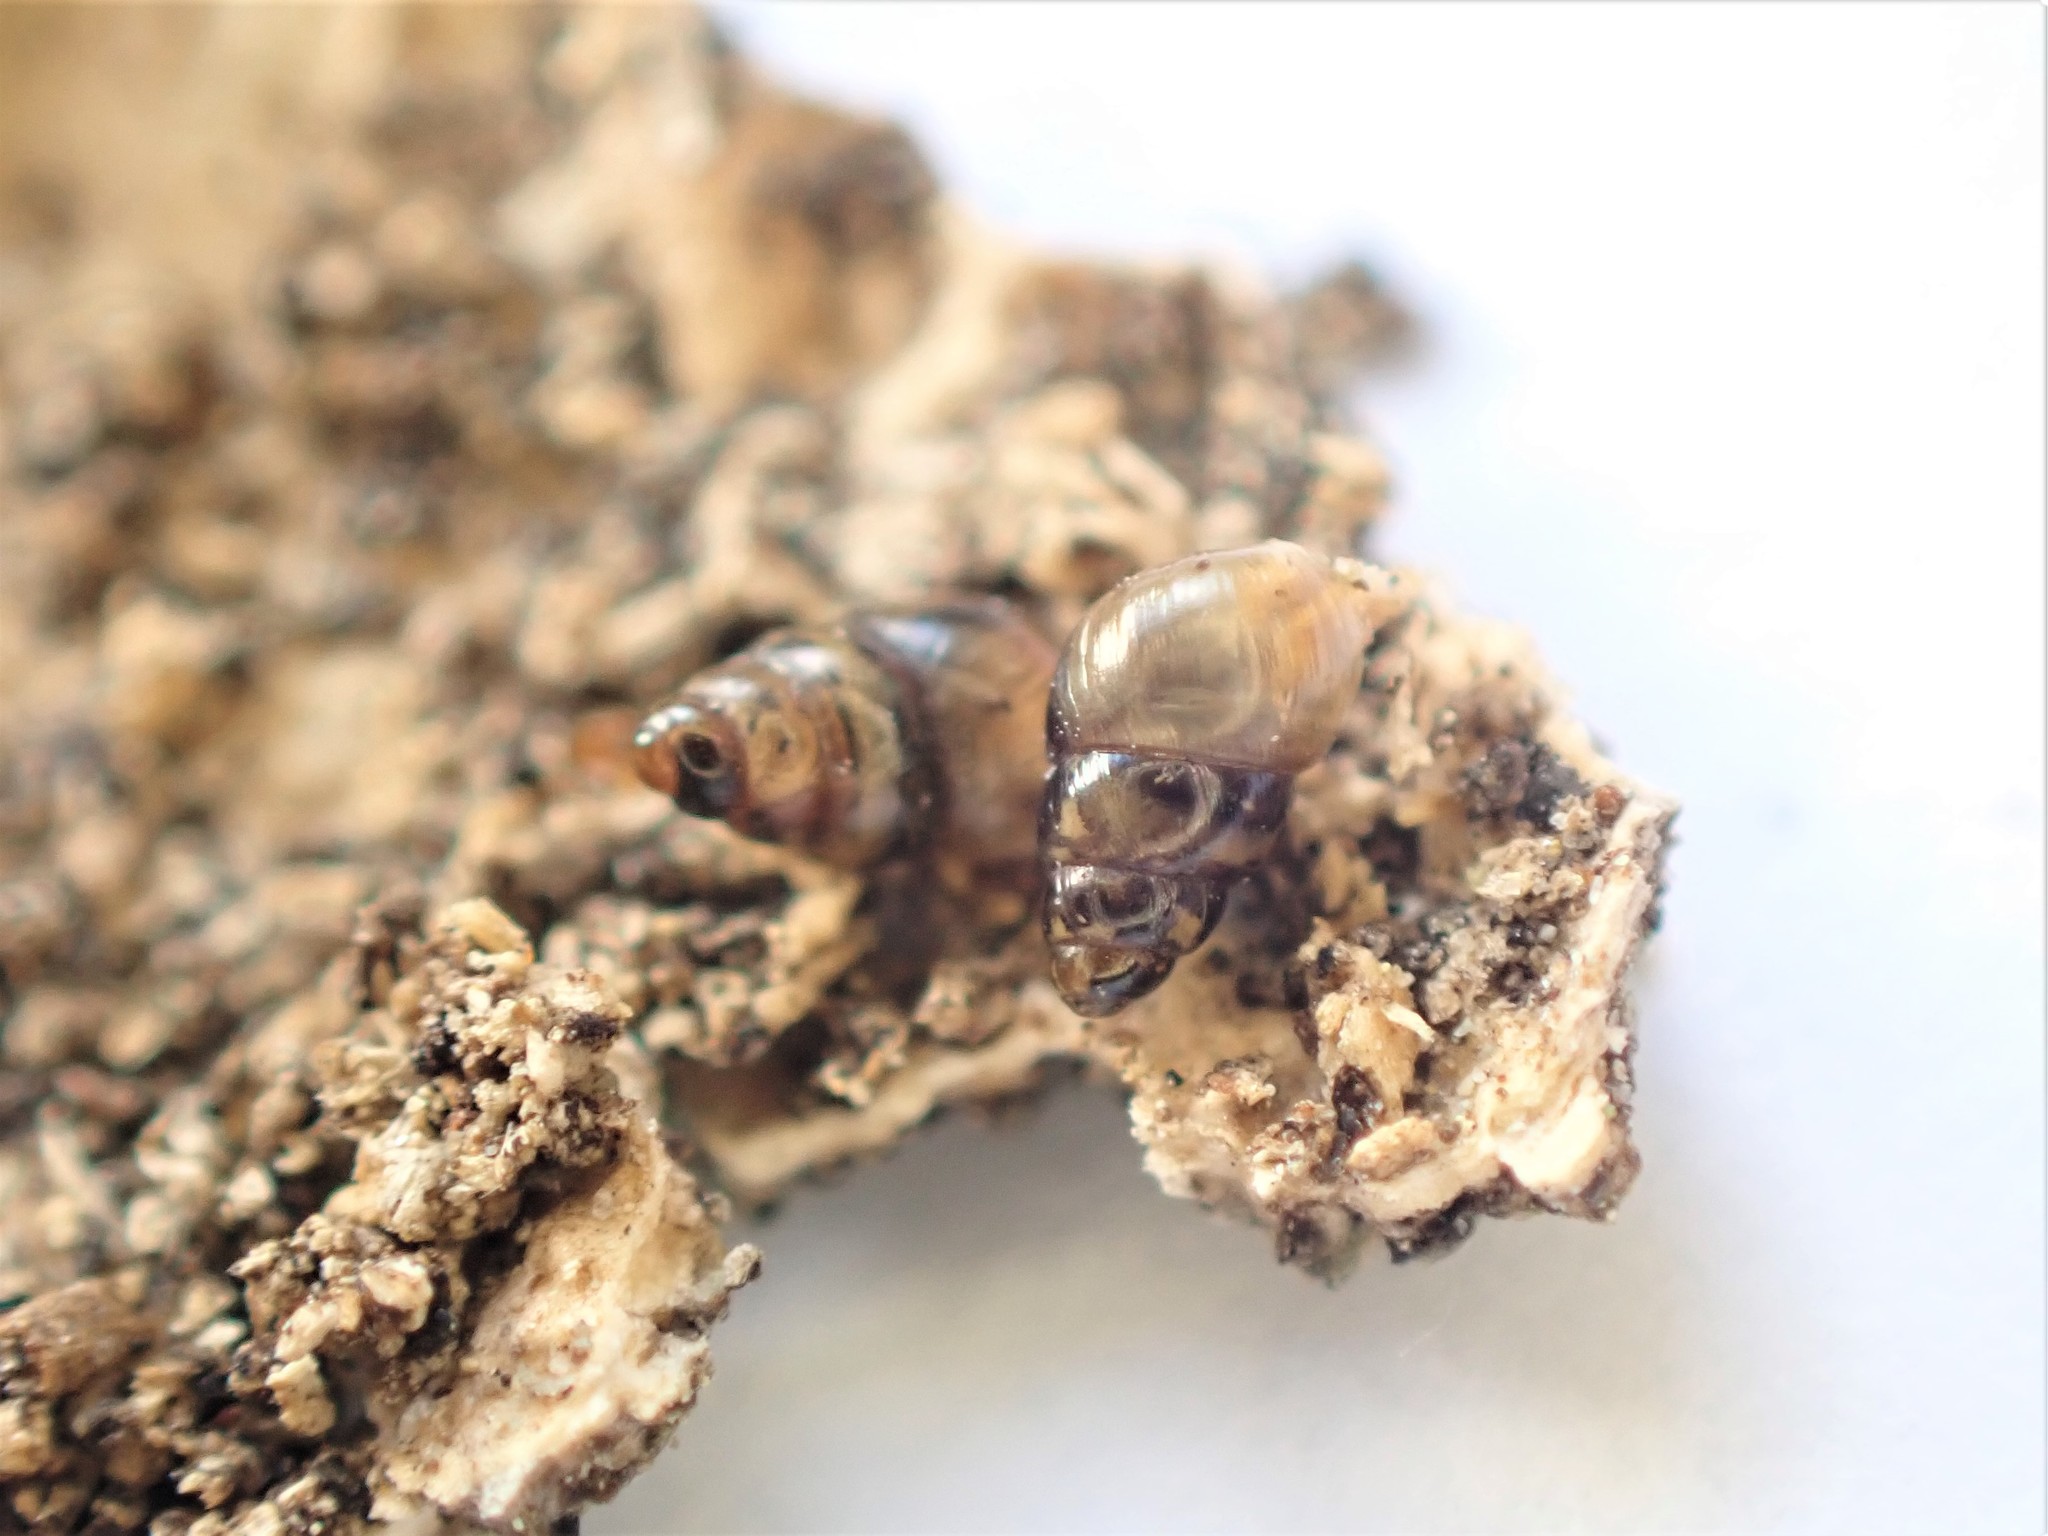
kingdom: Animalia
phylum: Mollusca
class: Gastropoda
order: Stylommatophora
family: Achatinellidae
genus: Tornatellinops
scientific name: Tornatellinops novoseelandicus
